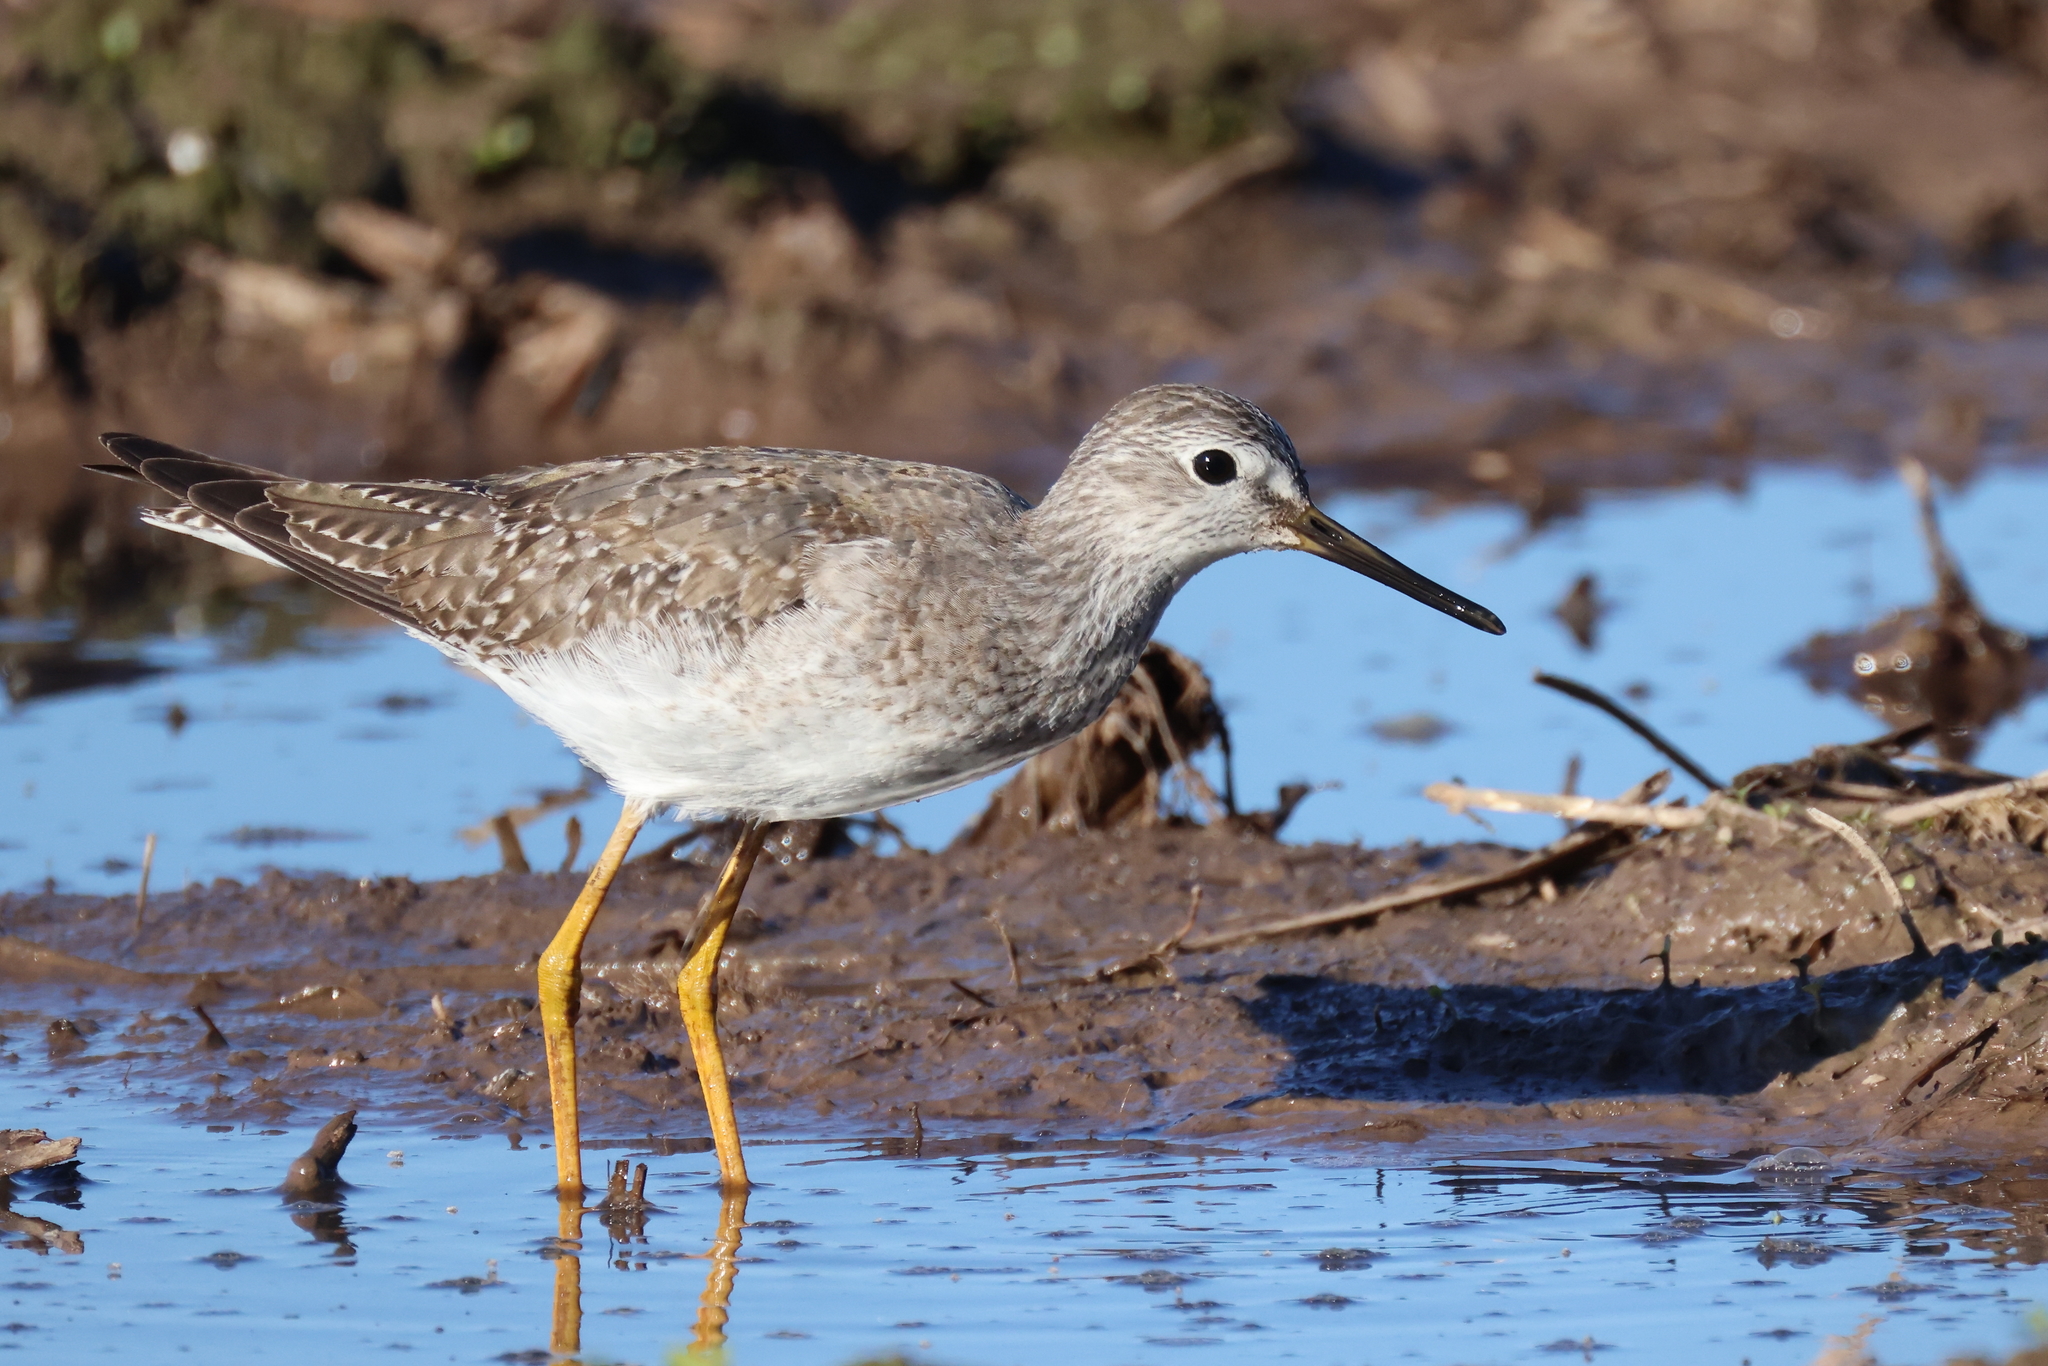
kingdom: Animalia
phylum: Chordata
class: Aves
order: Charadriiformes
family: Scolopacidae
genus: Tringa
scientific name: Tringa flavipes
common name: Lesser yellowlegs
